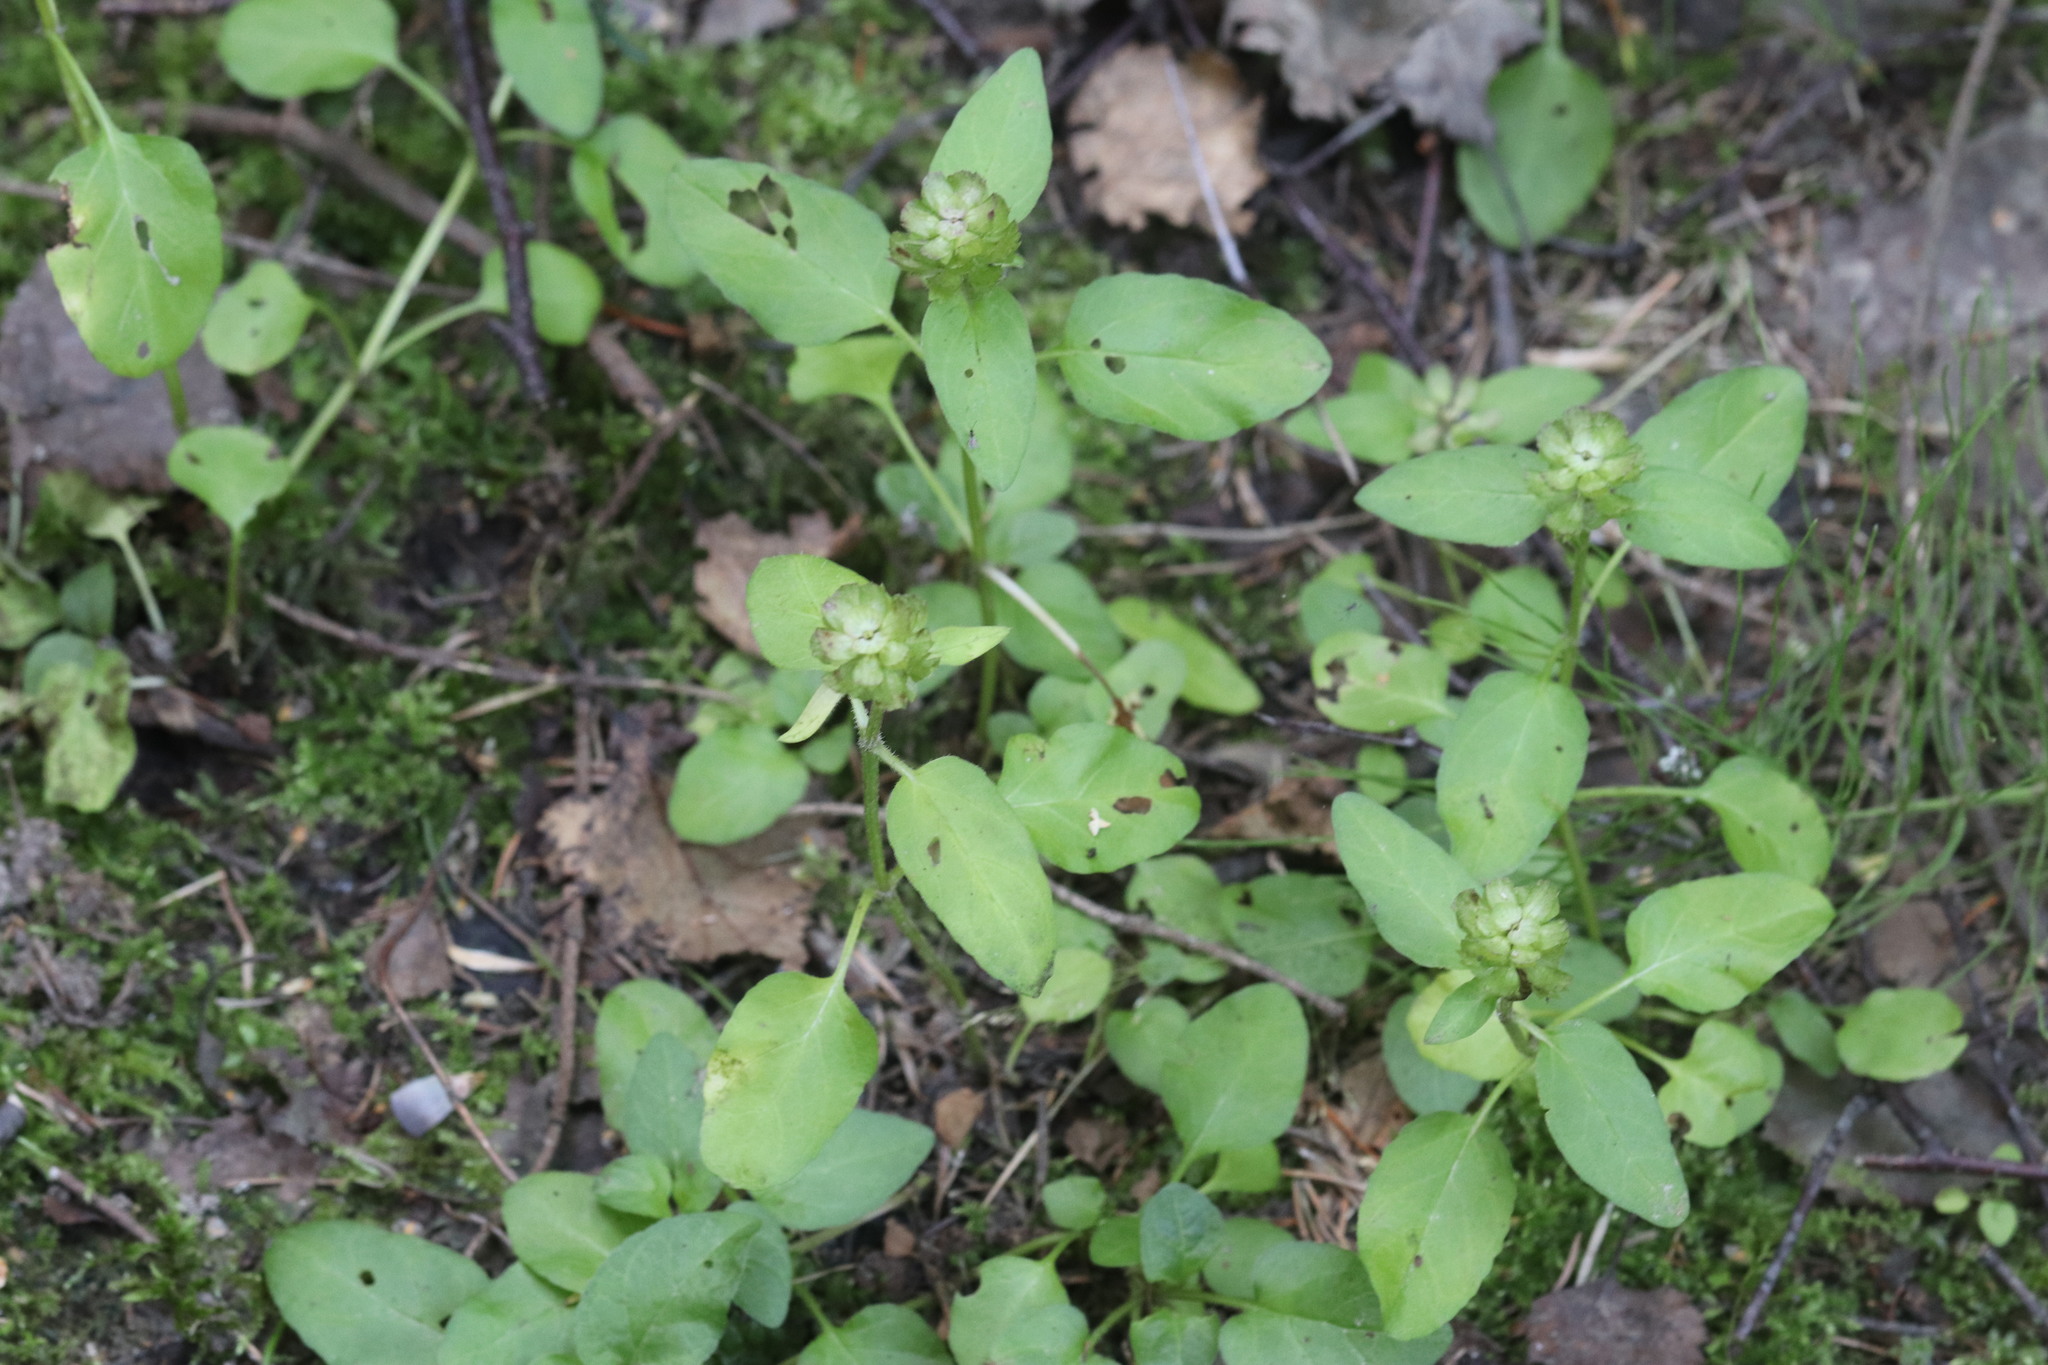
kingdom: Plantae
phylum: Tracheophyta
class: Magnoliopsida
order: Lamiales
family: Lamiaceae
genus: Prunella
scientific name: Prunella vulgaris
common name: Heal-all
